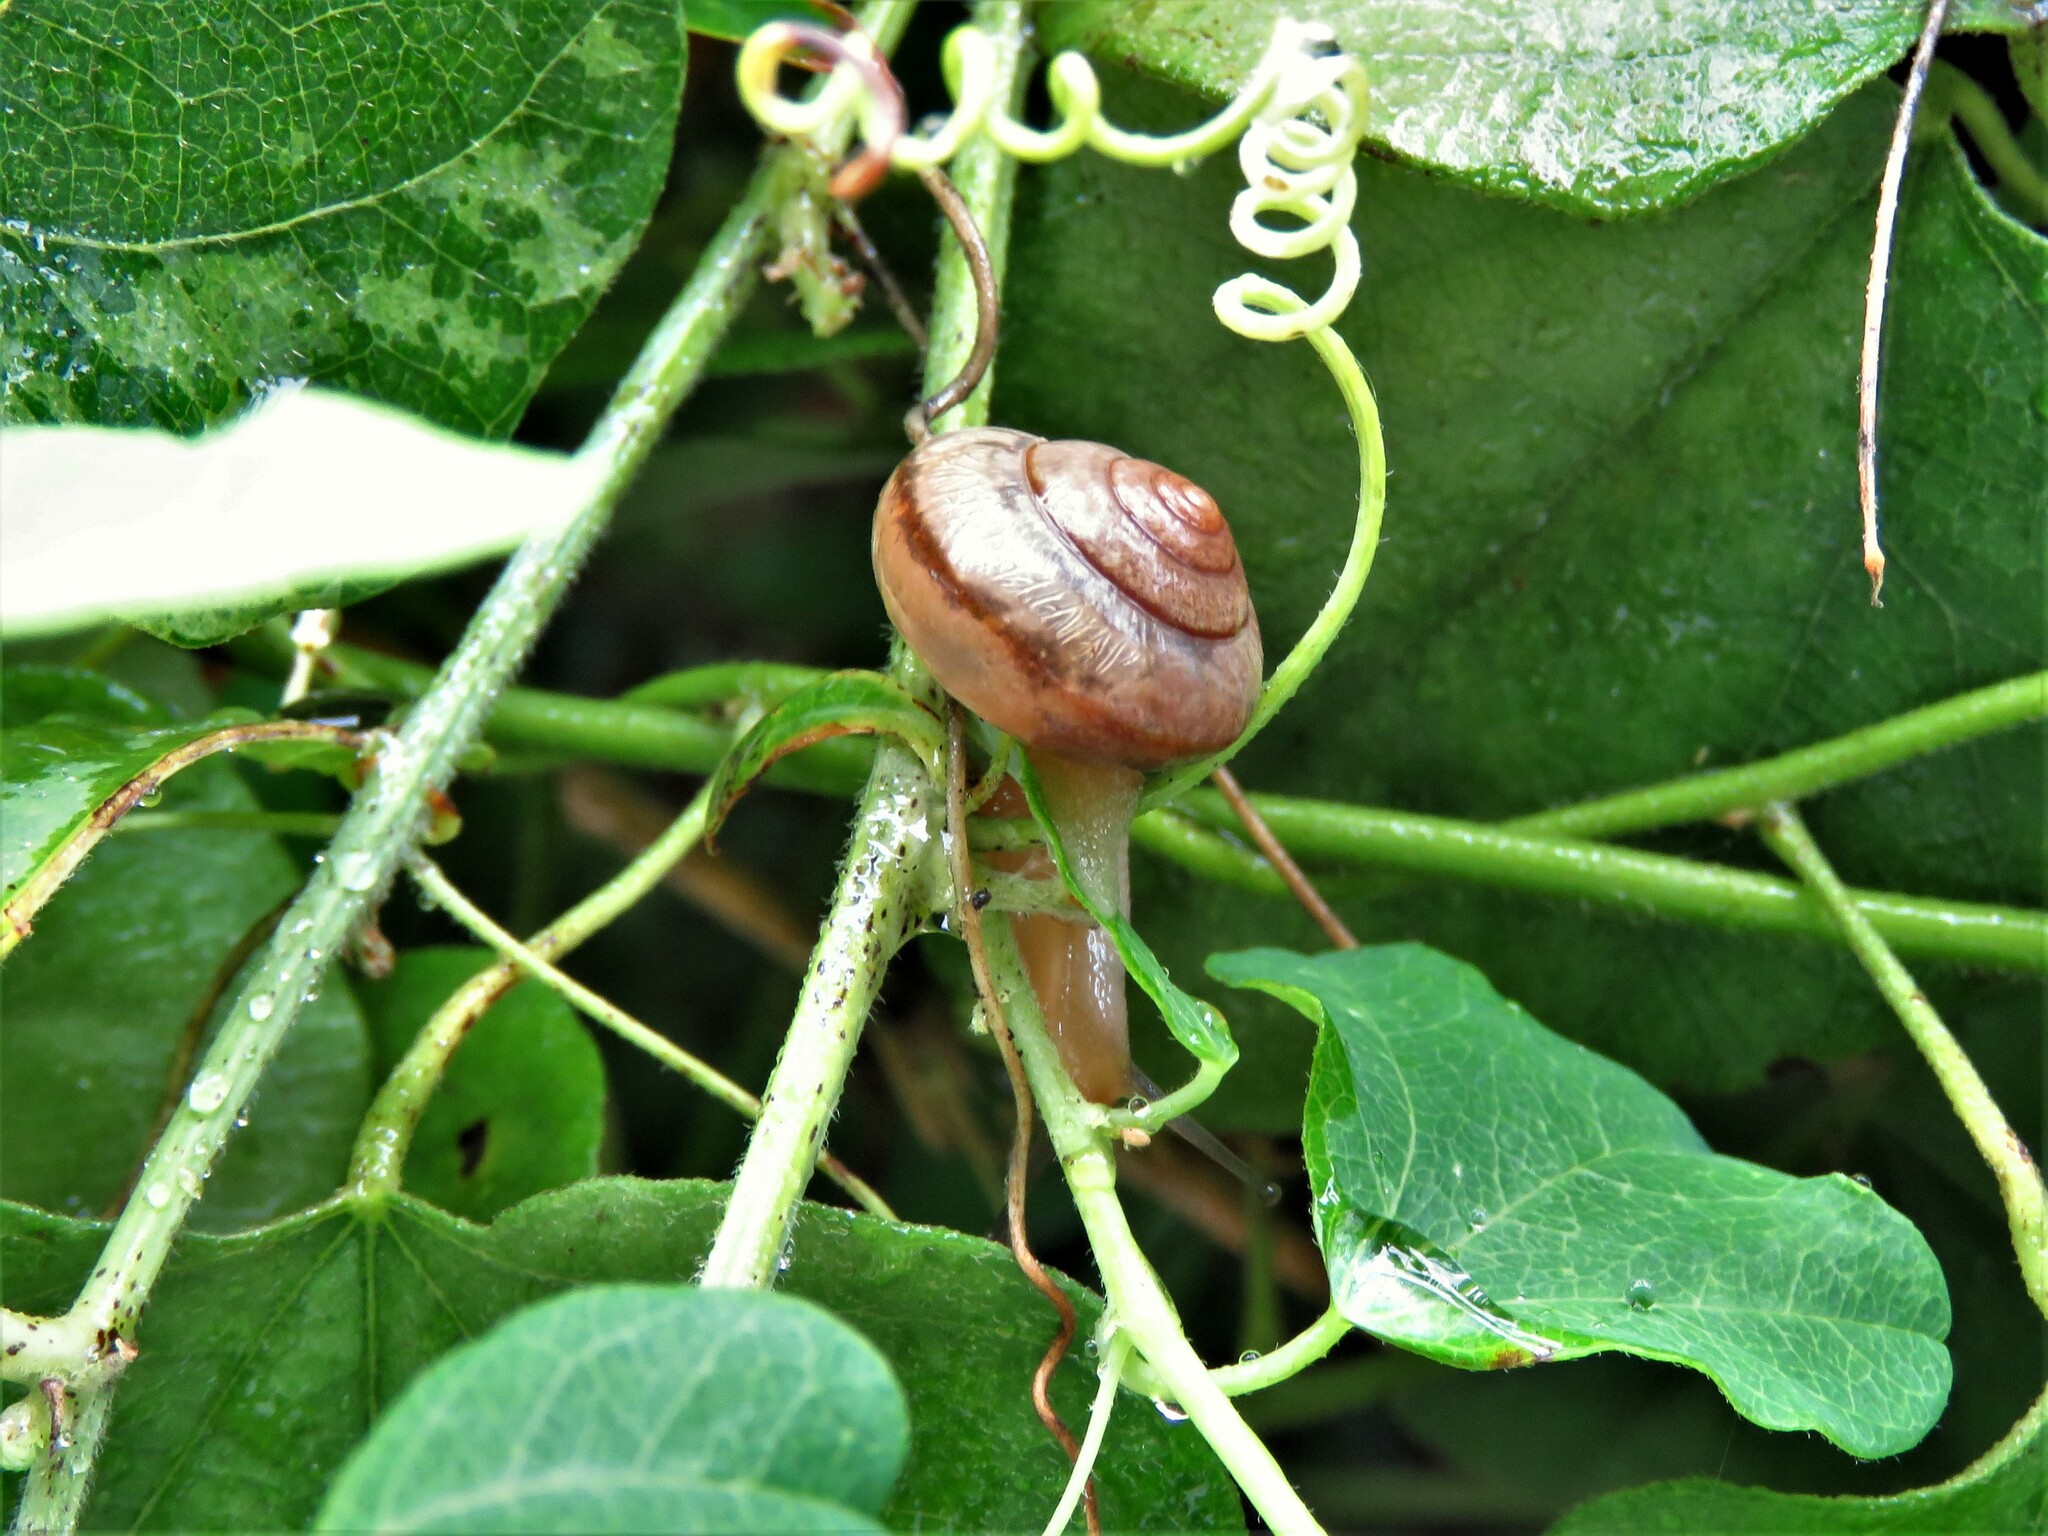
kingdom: Animalia
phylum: Mollusca
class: Gastropoda
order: Stylommatophora
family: Camaenidae
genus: Bradybaena
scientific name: Bradybaena similaris
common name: Asian trampsnail
